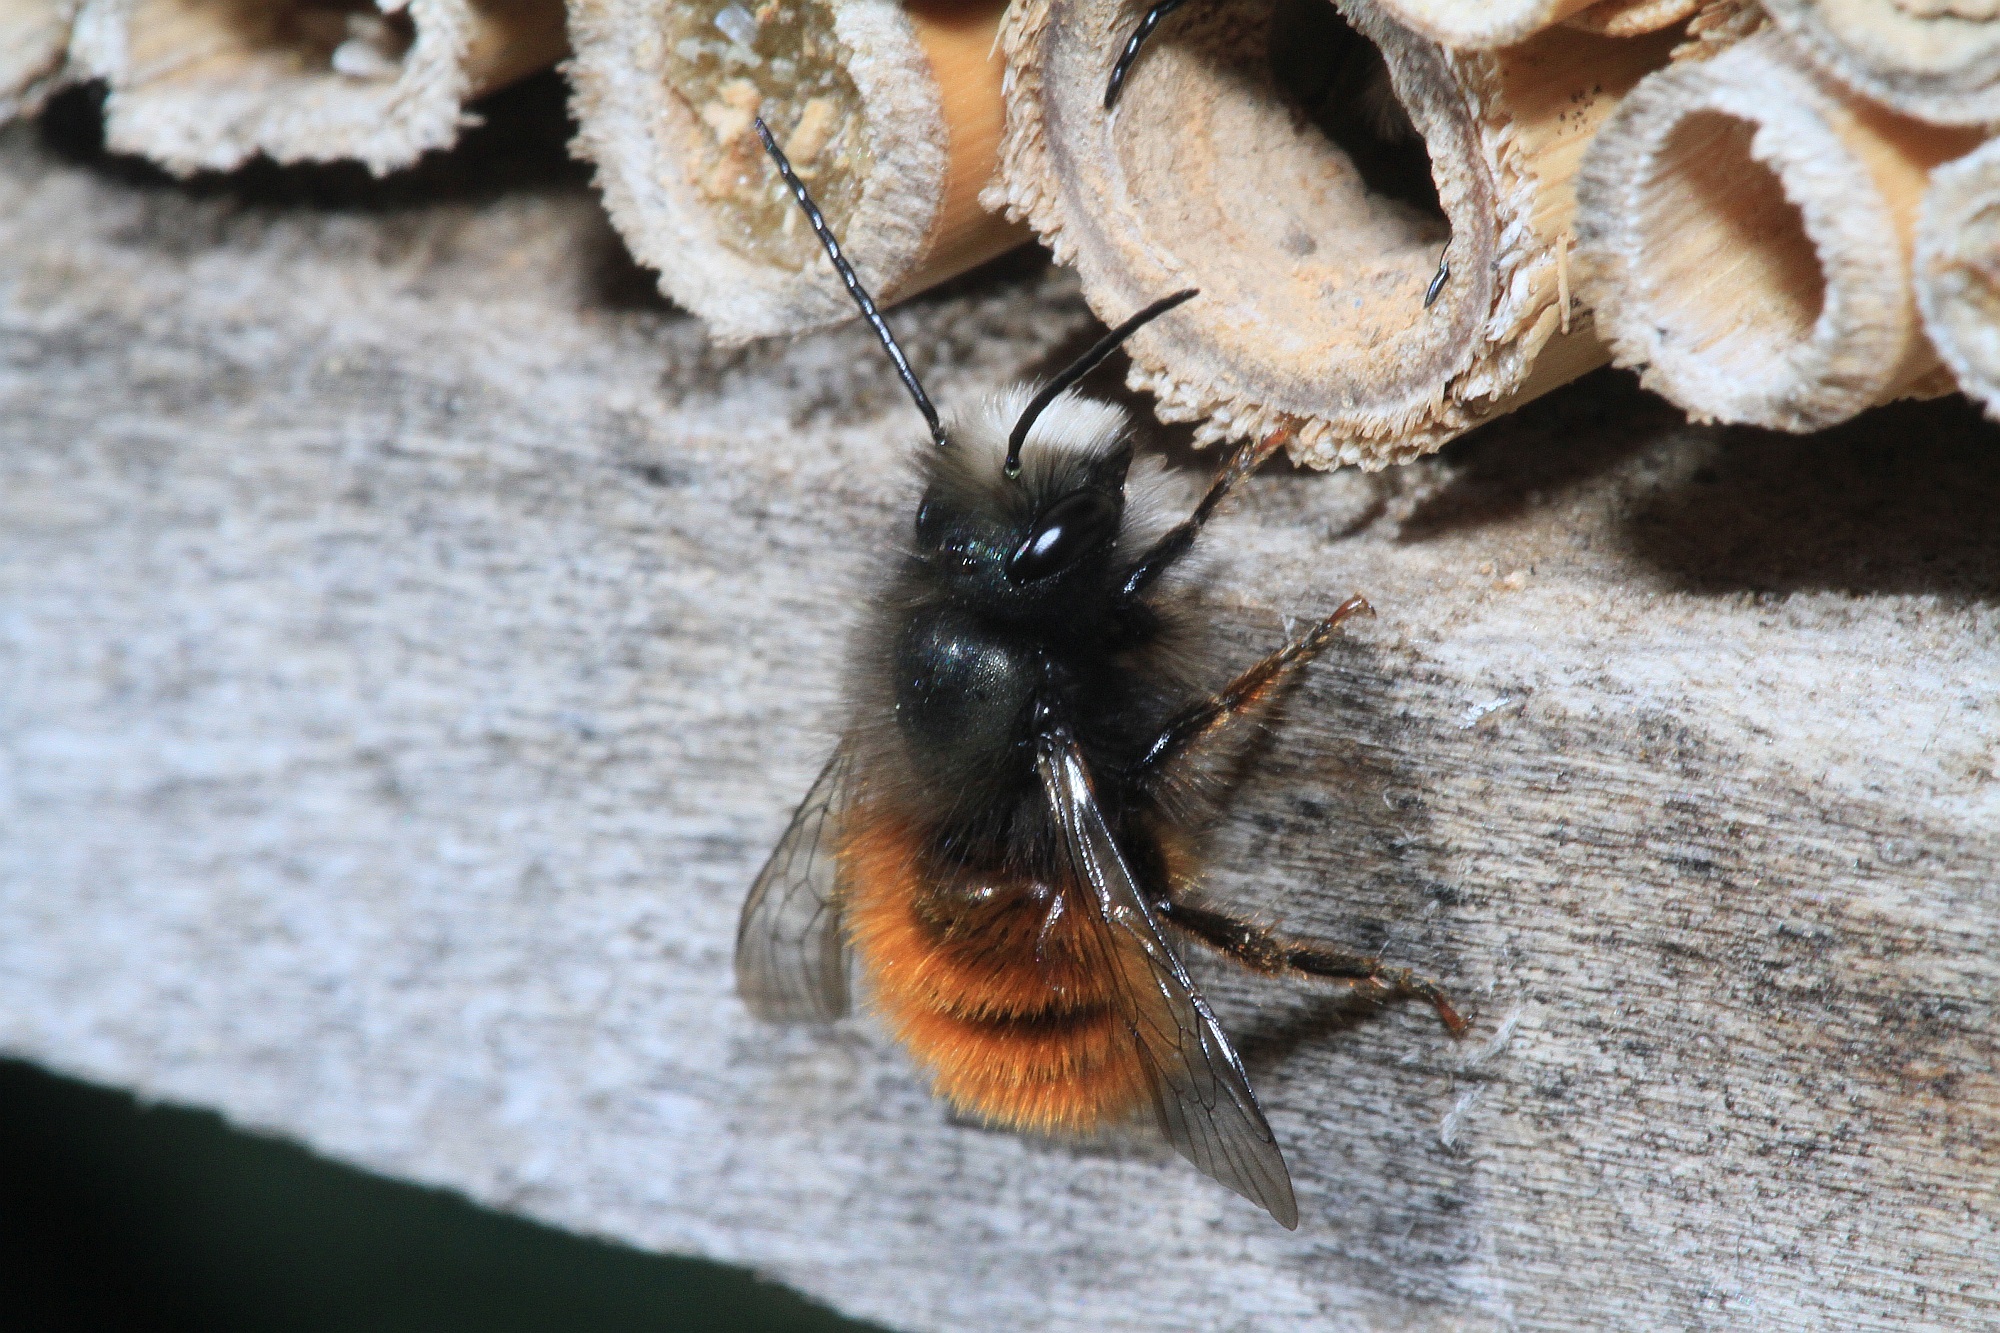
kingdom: Animalia
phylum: Arthropoda
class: Insecta
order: Hymenoptera
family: Megachilidae
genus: Osmia
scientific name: Osmia cornuta
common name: Mason bee
